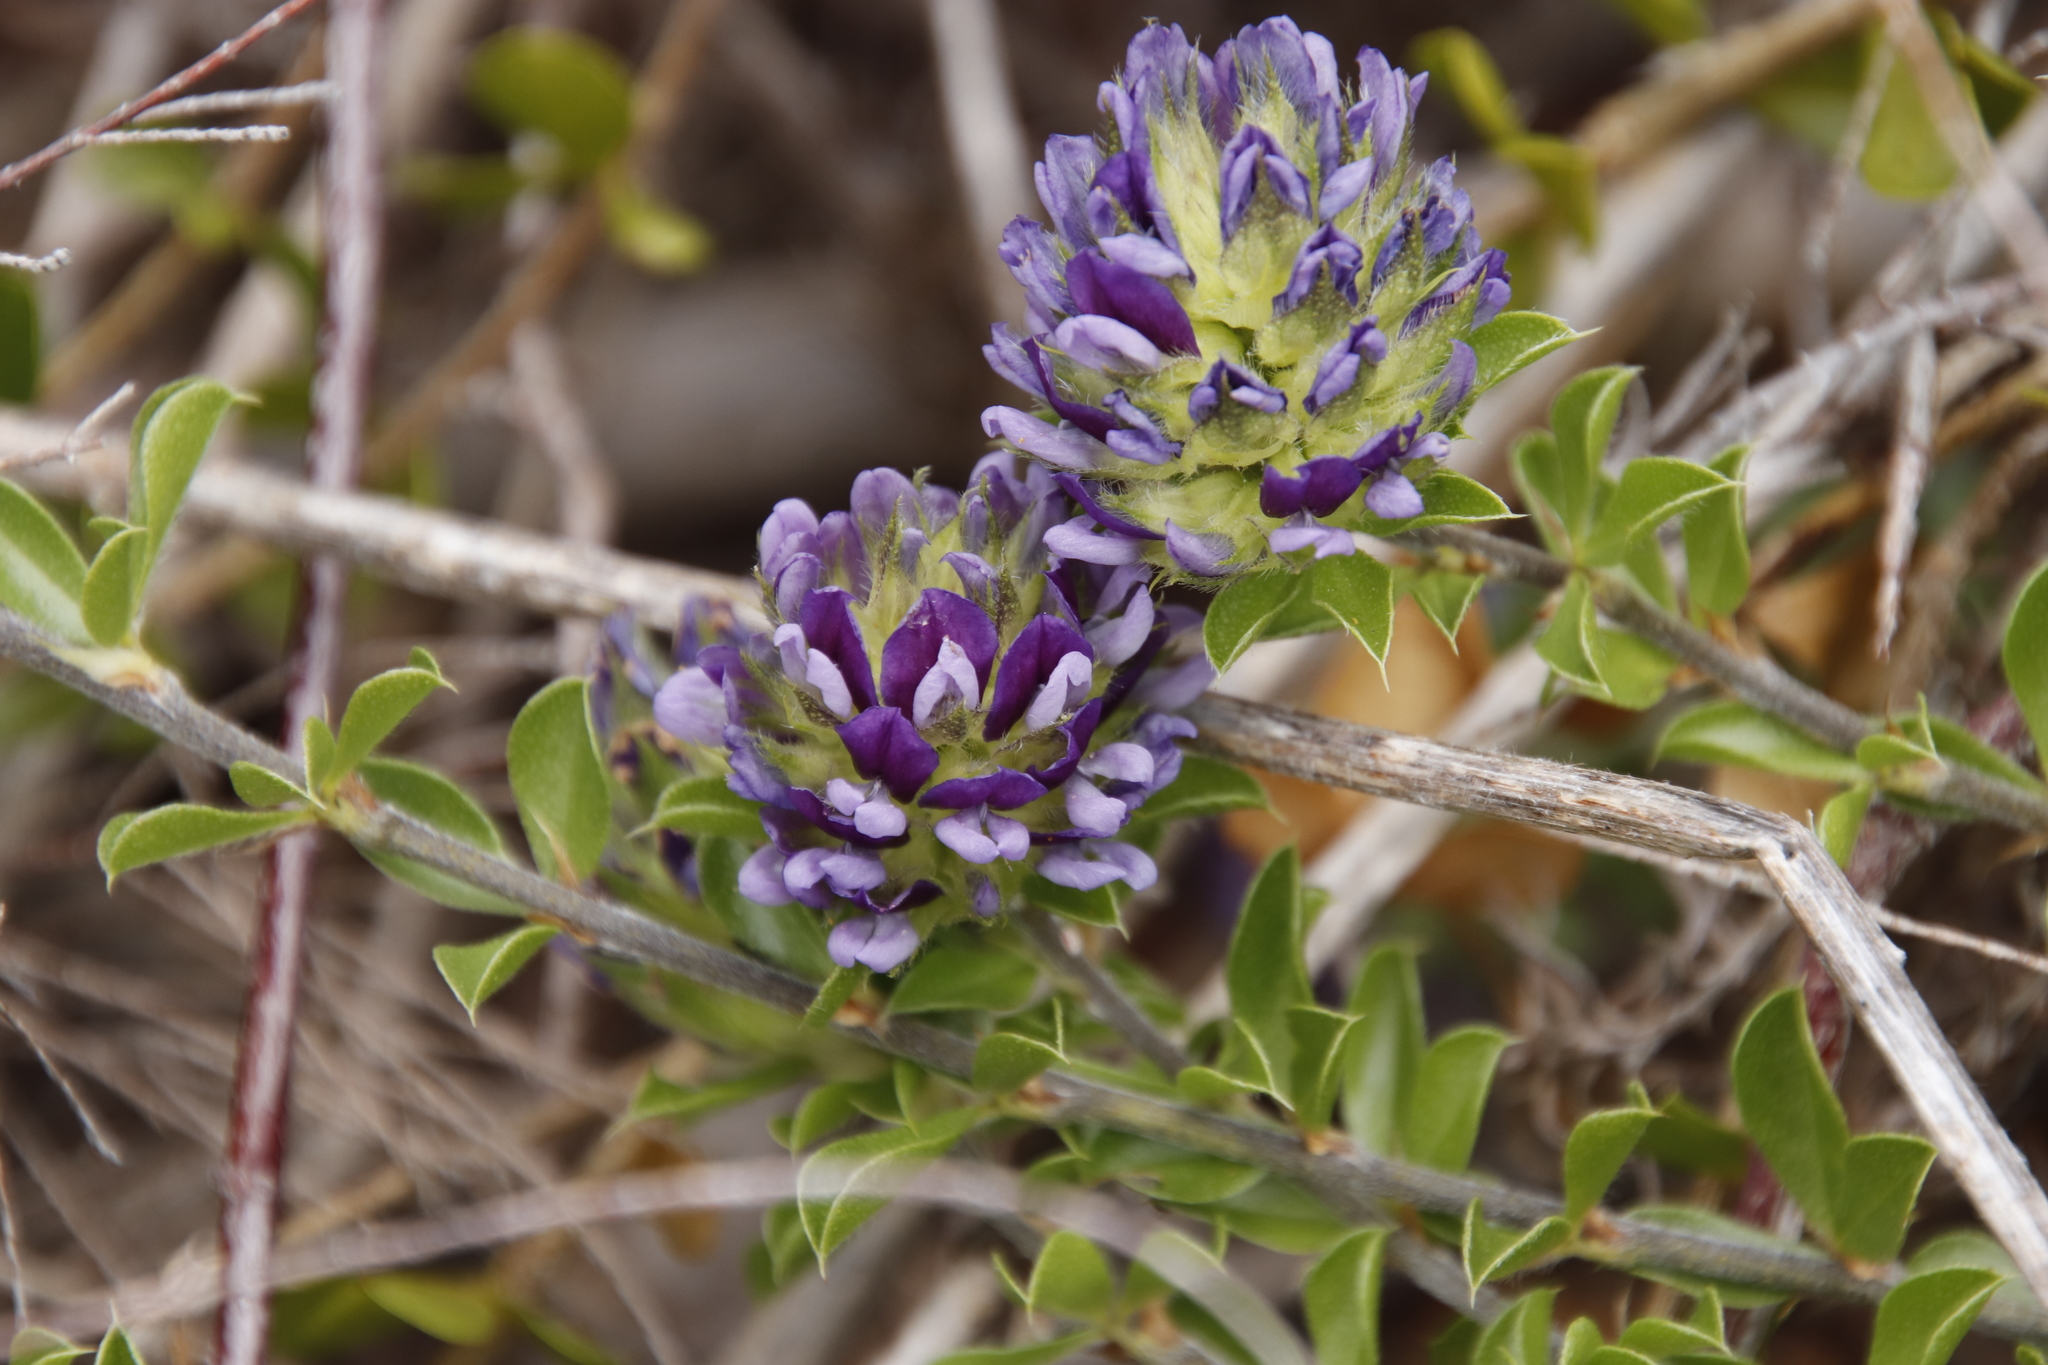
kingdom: Plantae
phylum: Tracheophyta
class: Magnoliopsida
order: Fabales
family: Fabaceae
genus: Psoralea
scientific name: Psoralea fruticans
